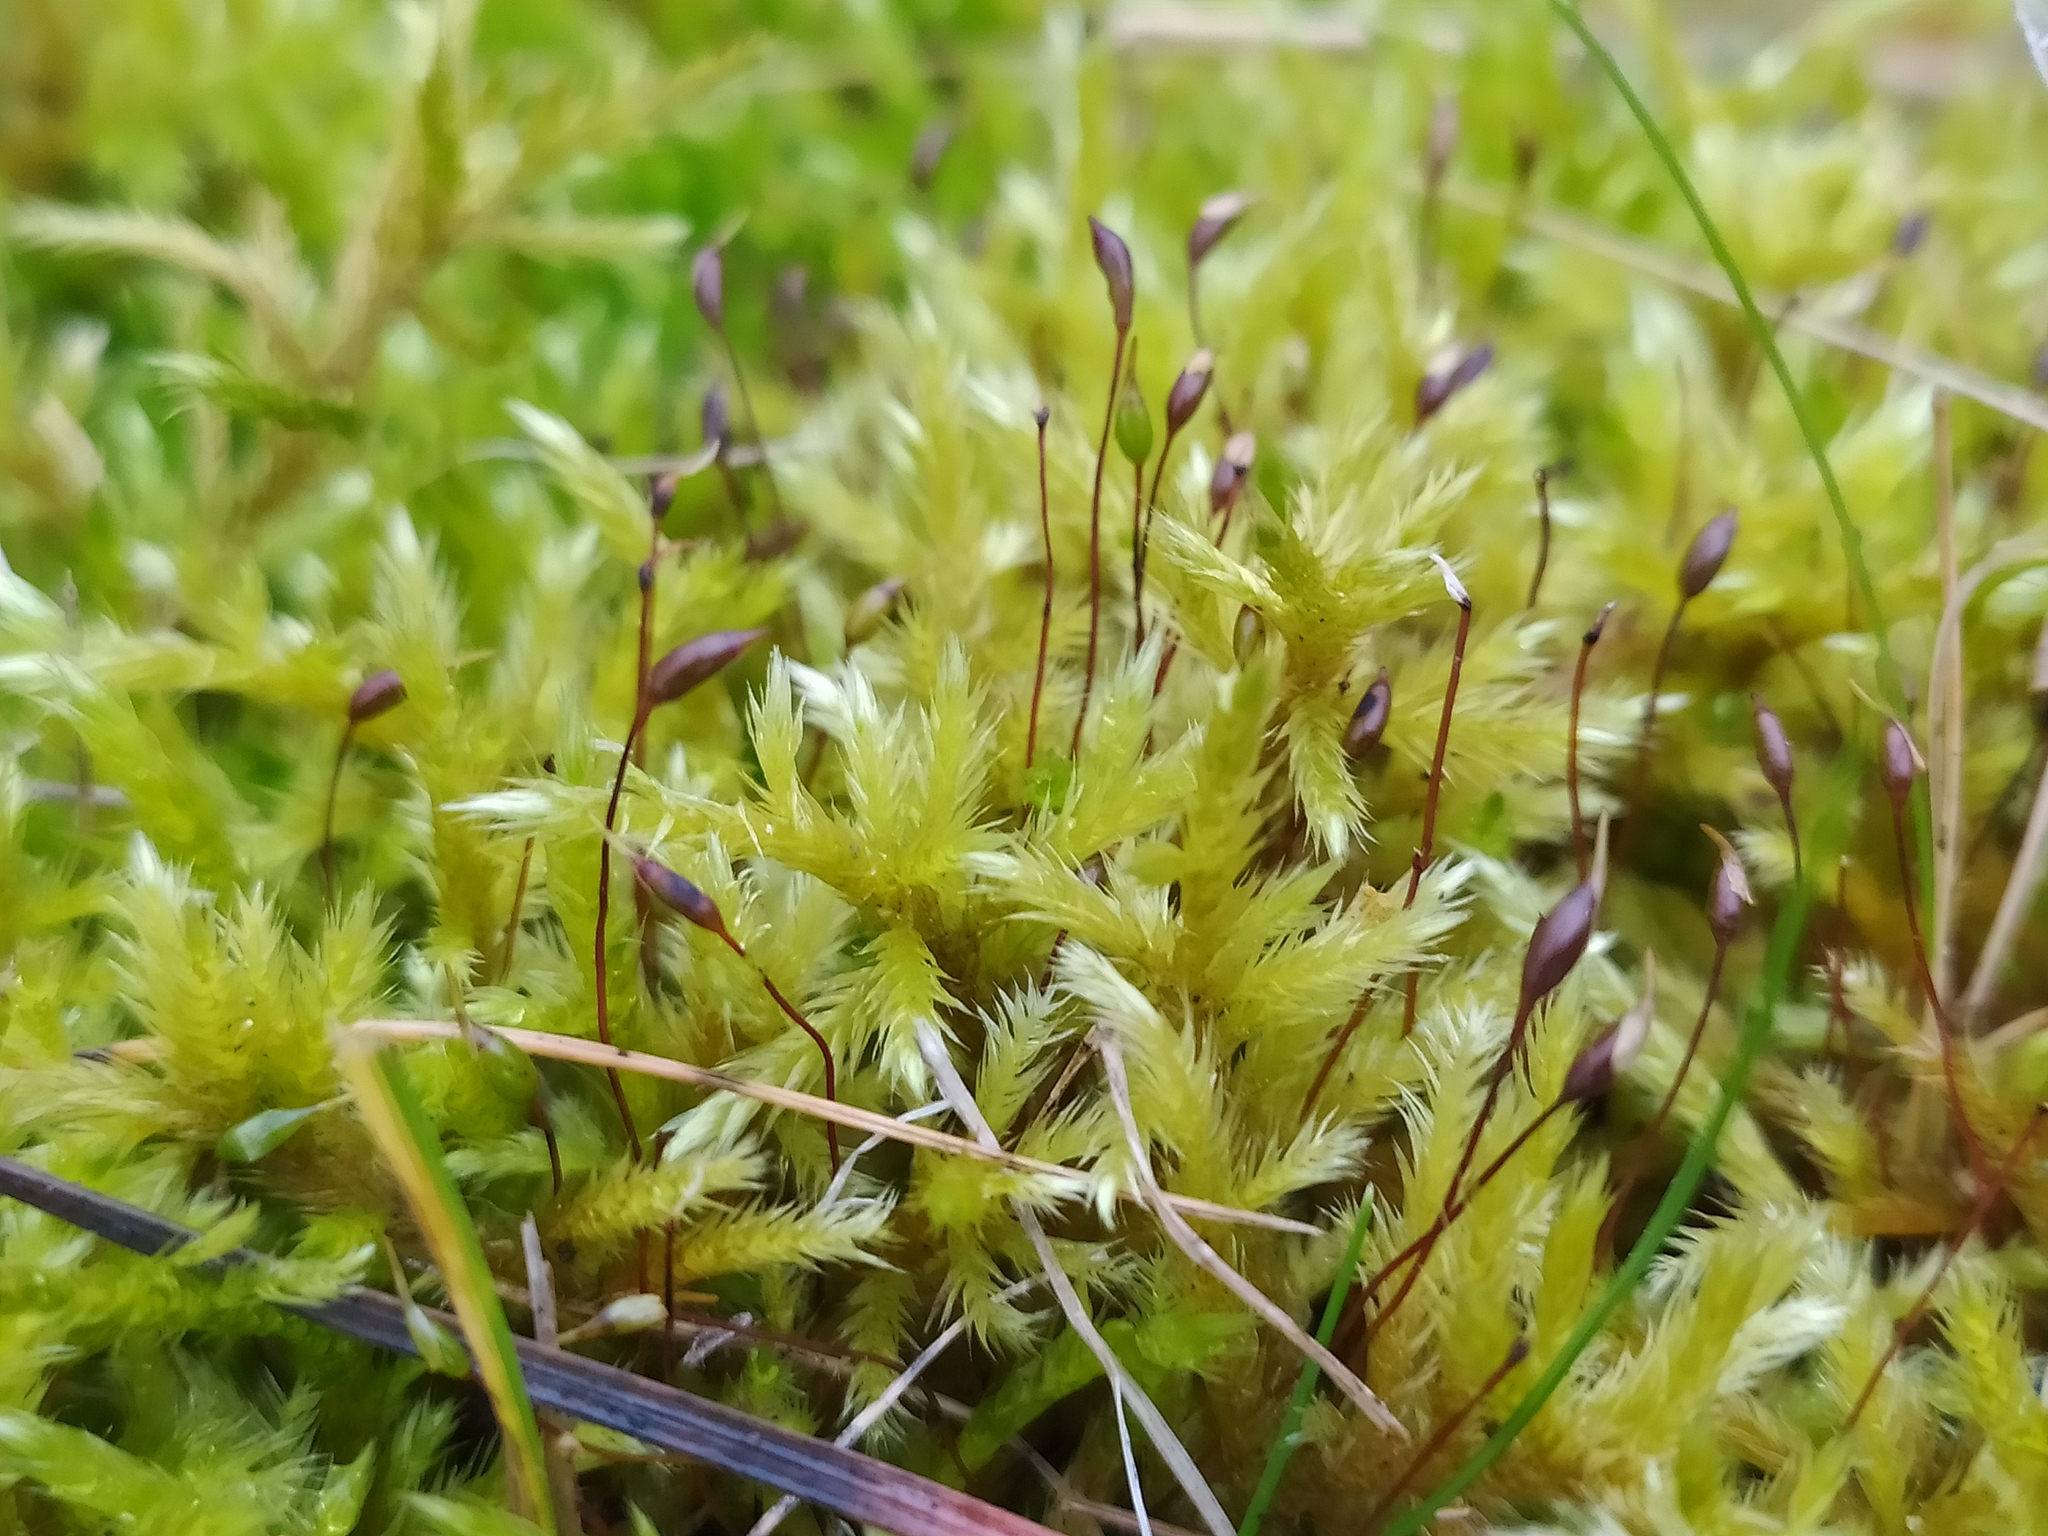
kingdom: Plantae
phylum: Bryophyta
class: Bryopsida
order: Hypnales
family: Brachytheciaceae
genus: Homalothecium
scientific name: Homalothecium lutescens
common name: Yellow feather-moss
